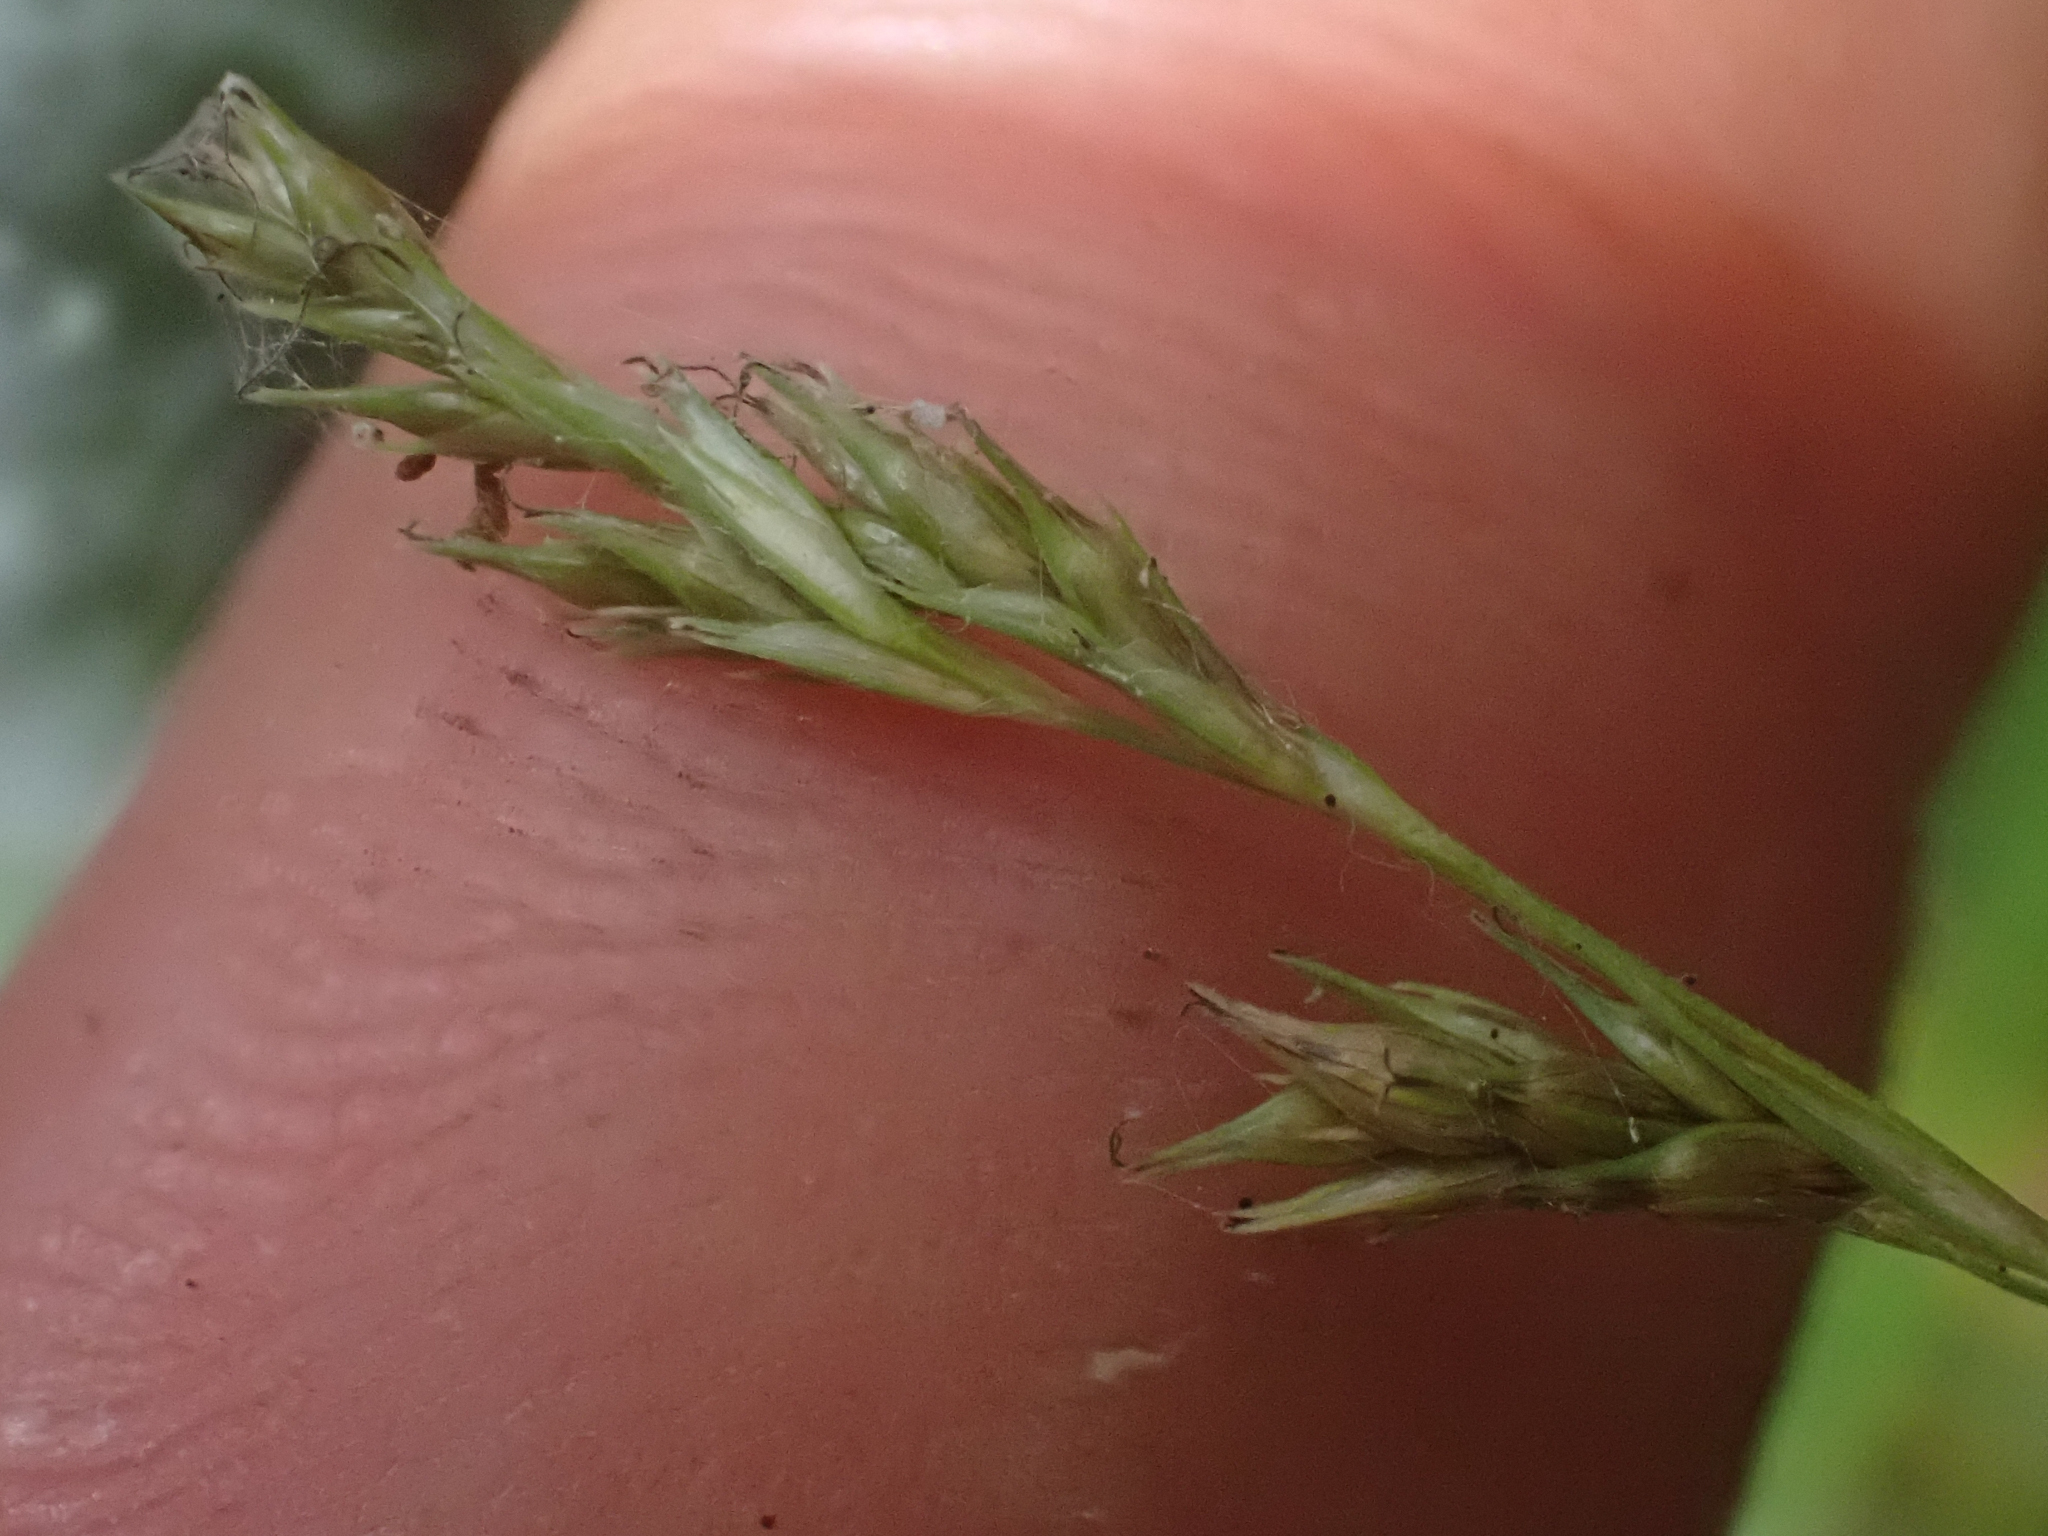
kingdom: Plantae
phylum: Tracheophyta
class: Liliopsida
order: Poales
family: Cyperaceae
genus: Carex
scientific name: Carex leptopoda
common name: Short-scale sedge
